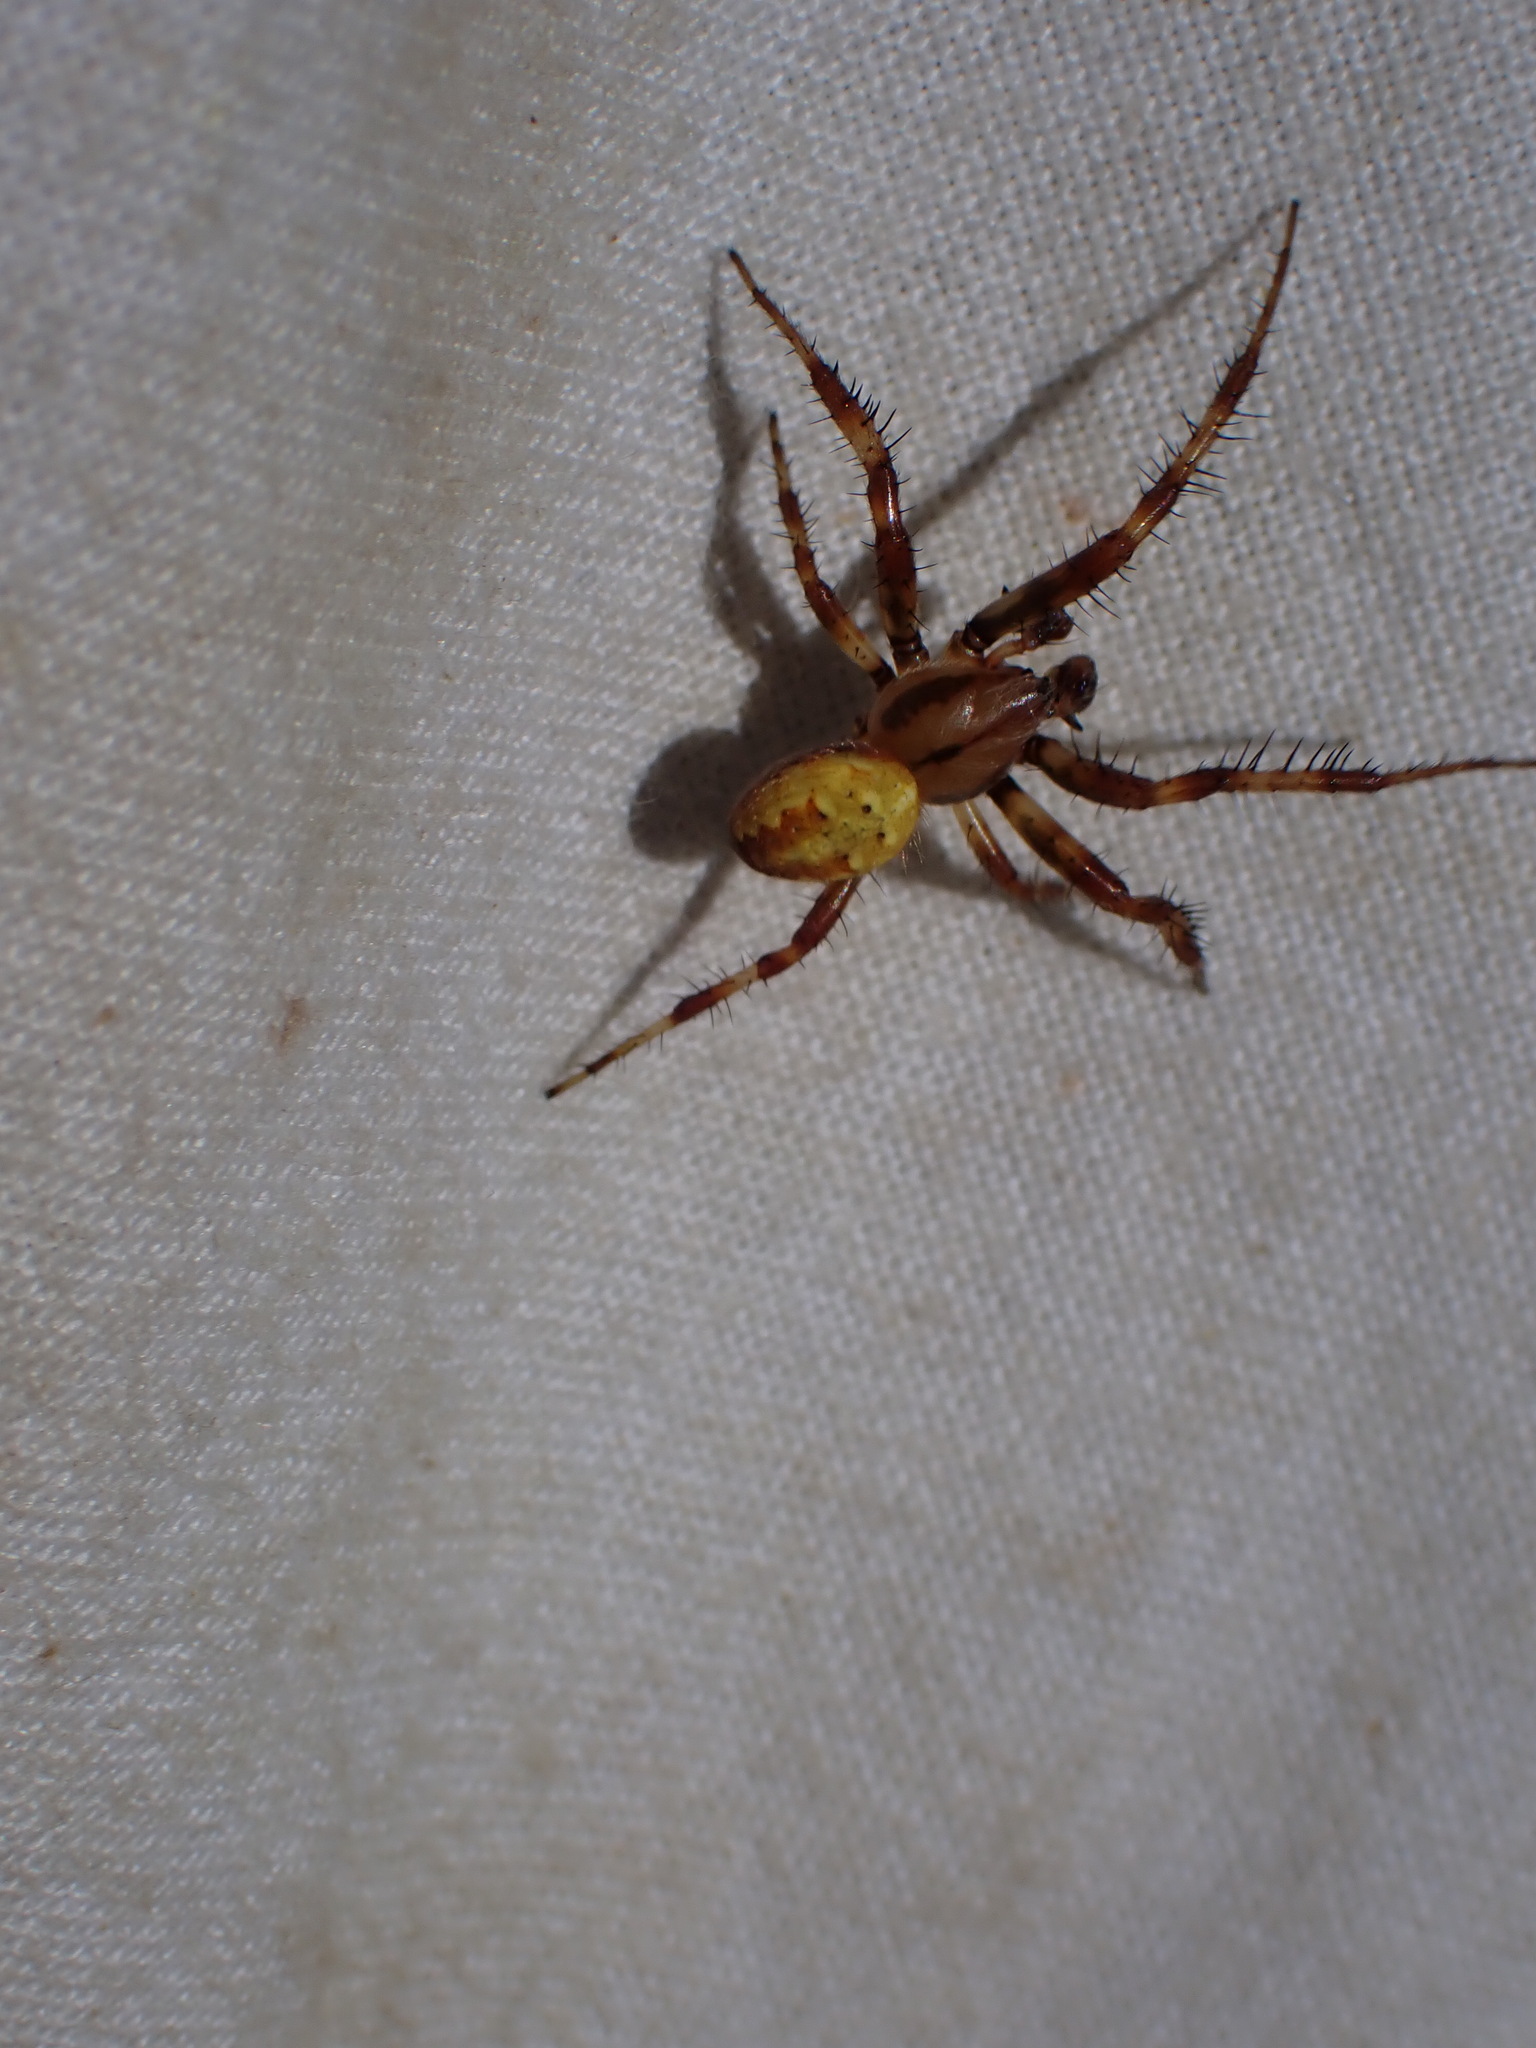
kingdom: Animalia
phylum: Arthropoda
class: Arachnida
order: Araneae
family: Araneidae
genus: Araneus
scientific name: Araneus quadratus
